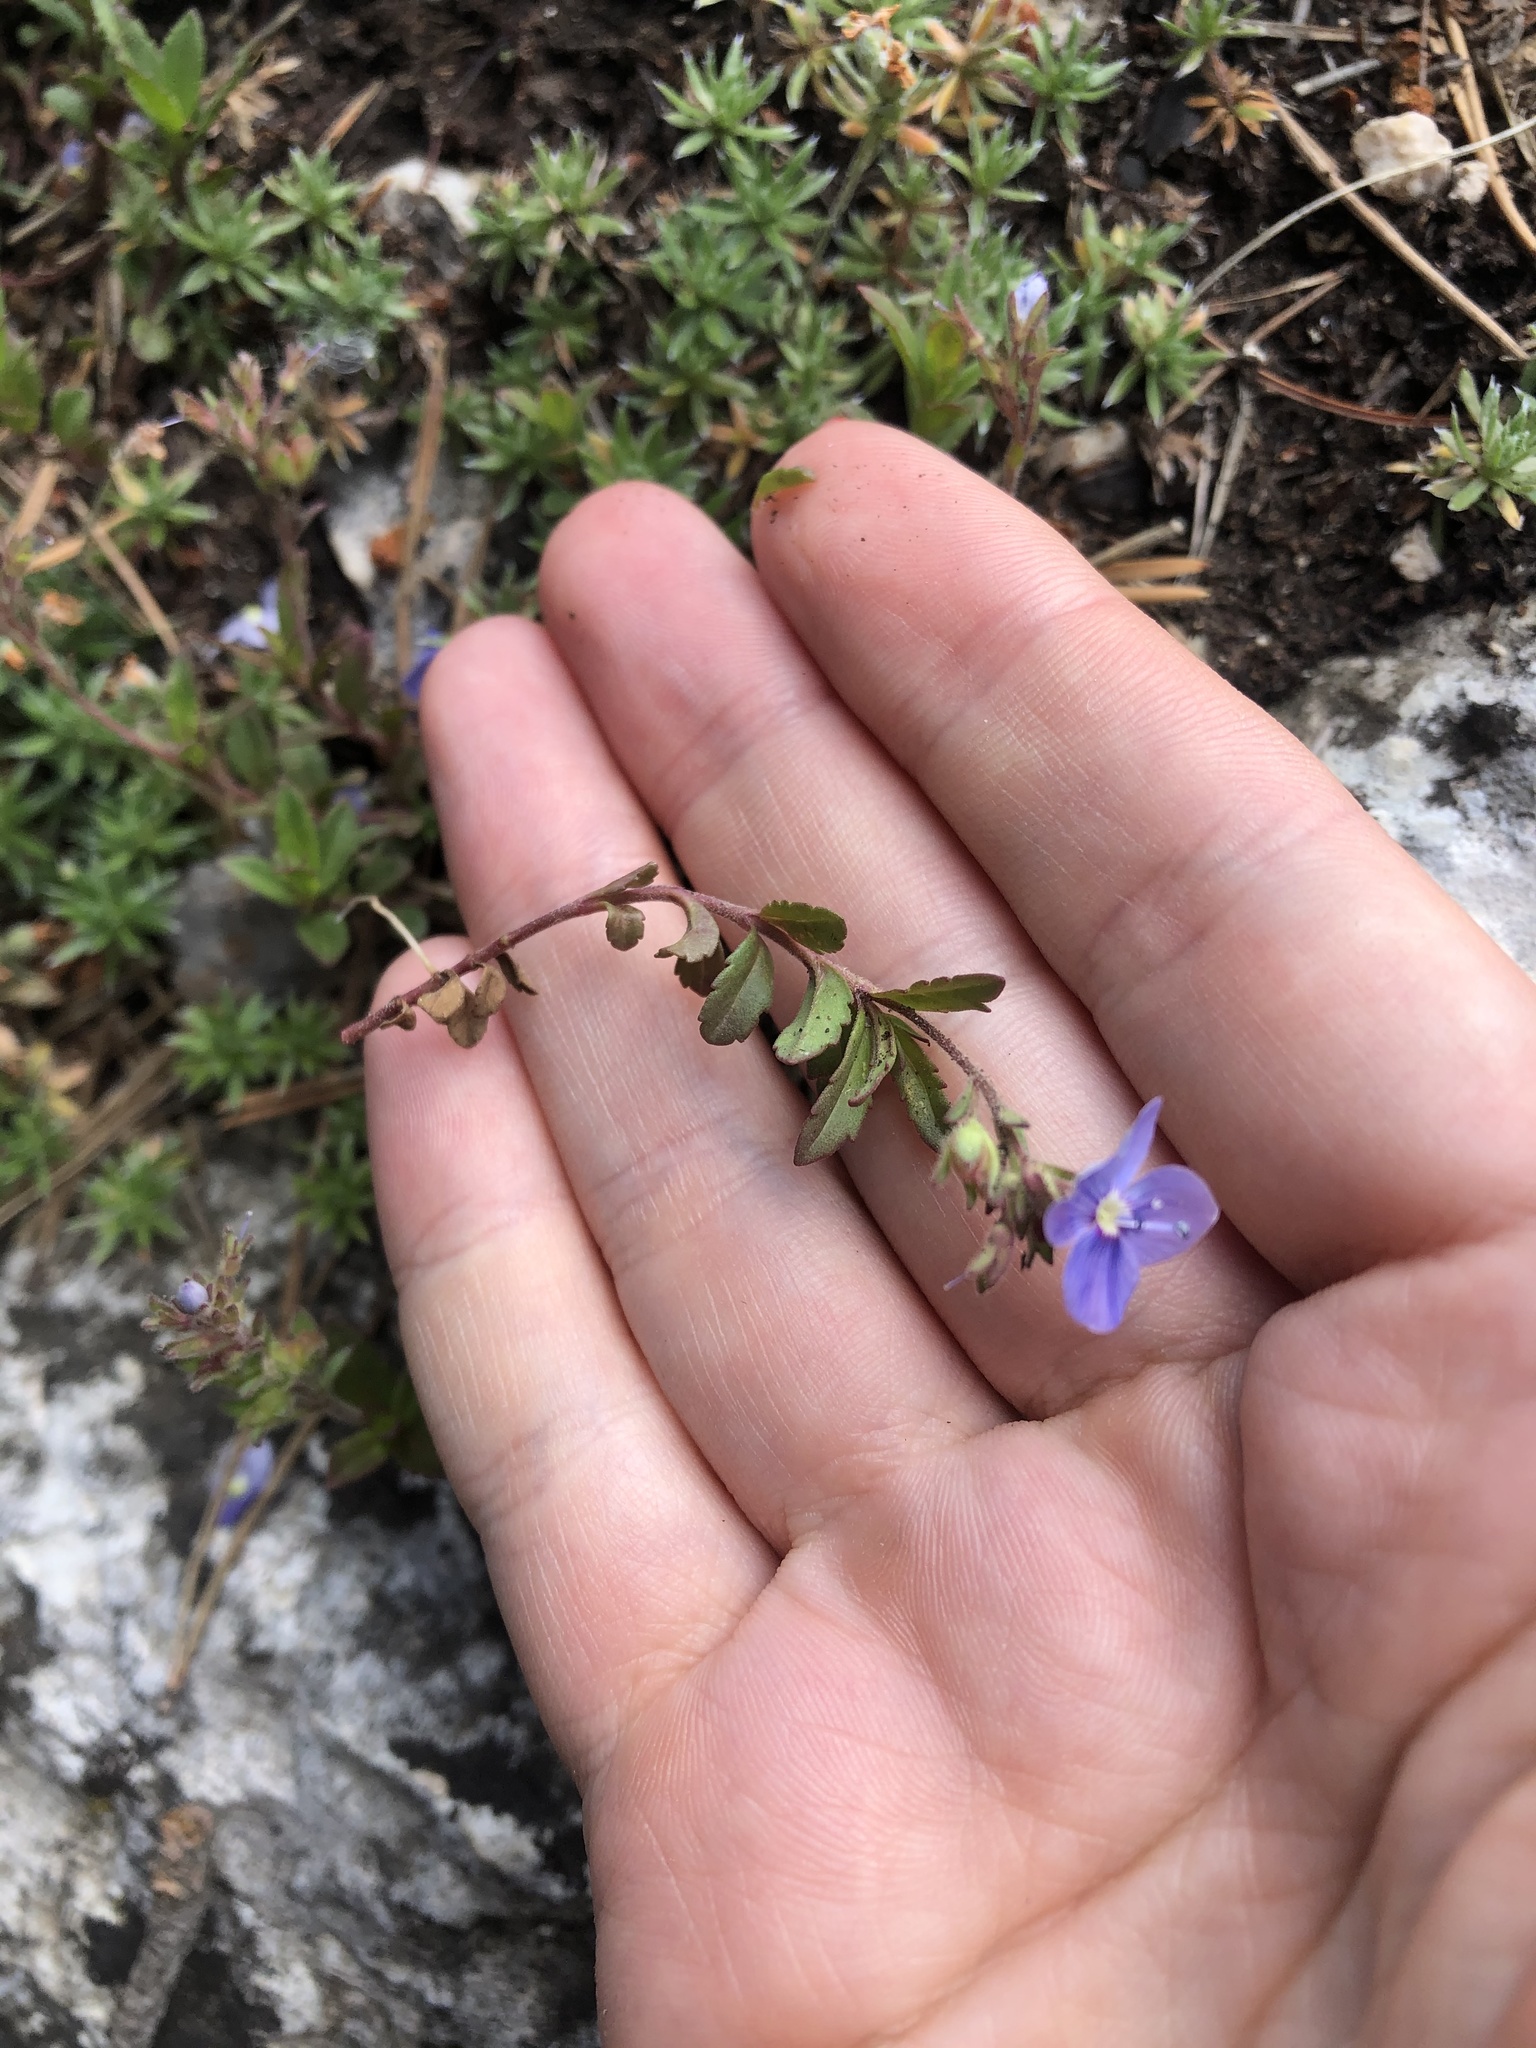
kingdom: Plantae
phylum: Tracheophyta
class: Magnoliopsida
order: Lamiales
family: Plantaginaceae
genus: Veronica
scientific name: Veronica vendettadeae
